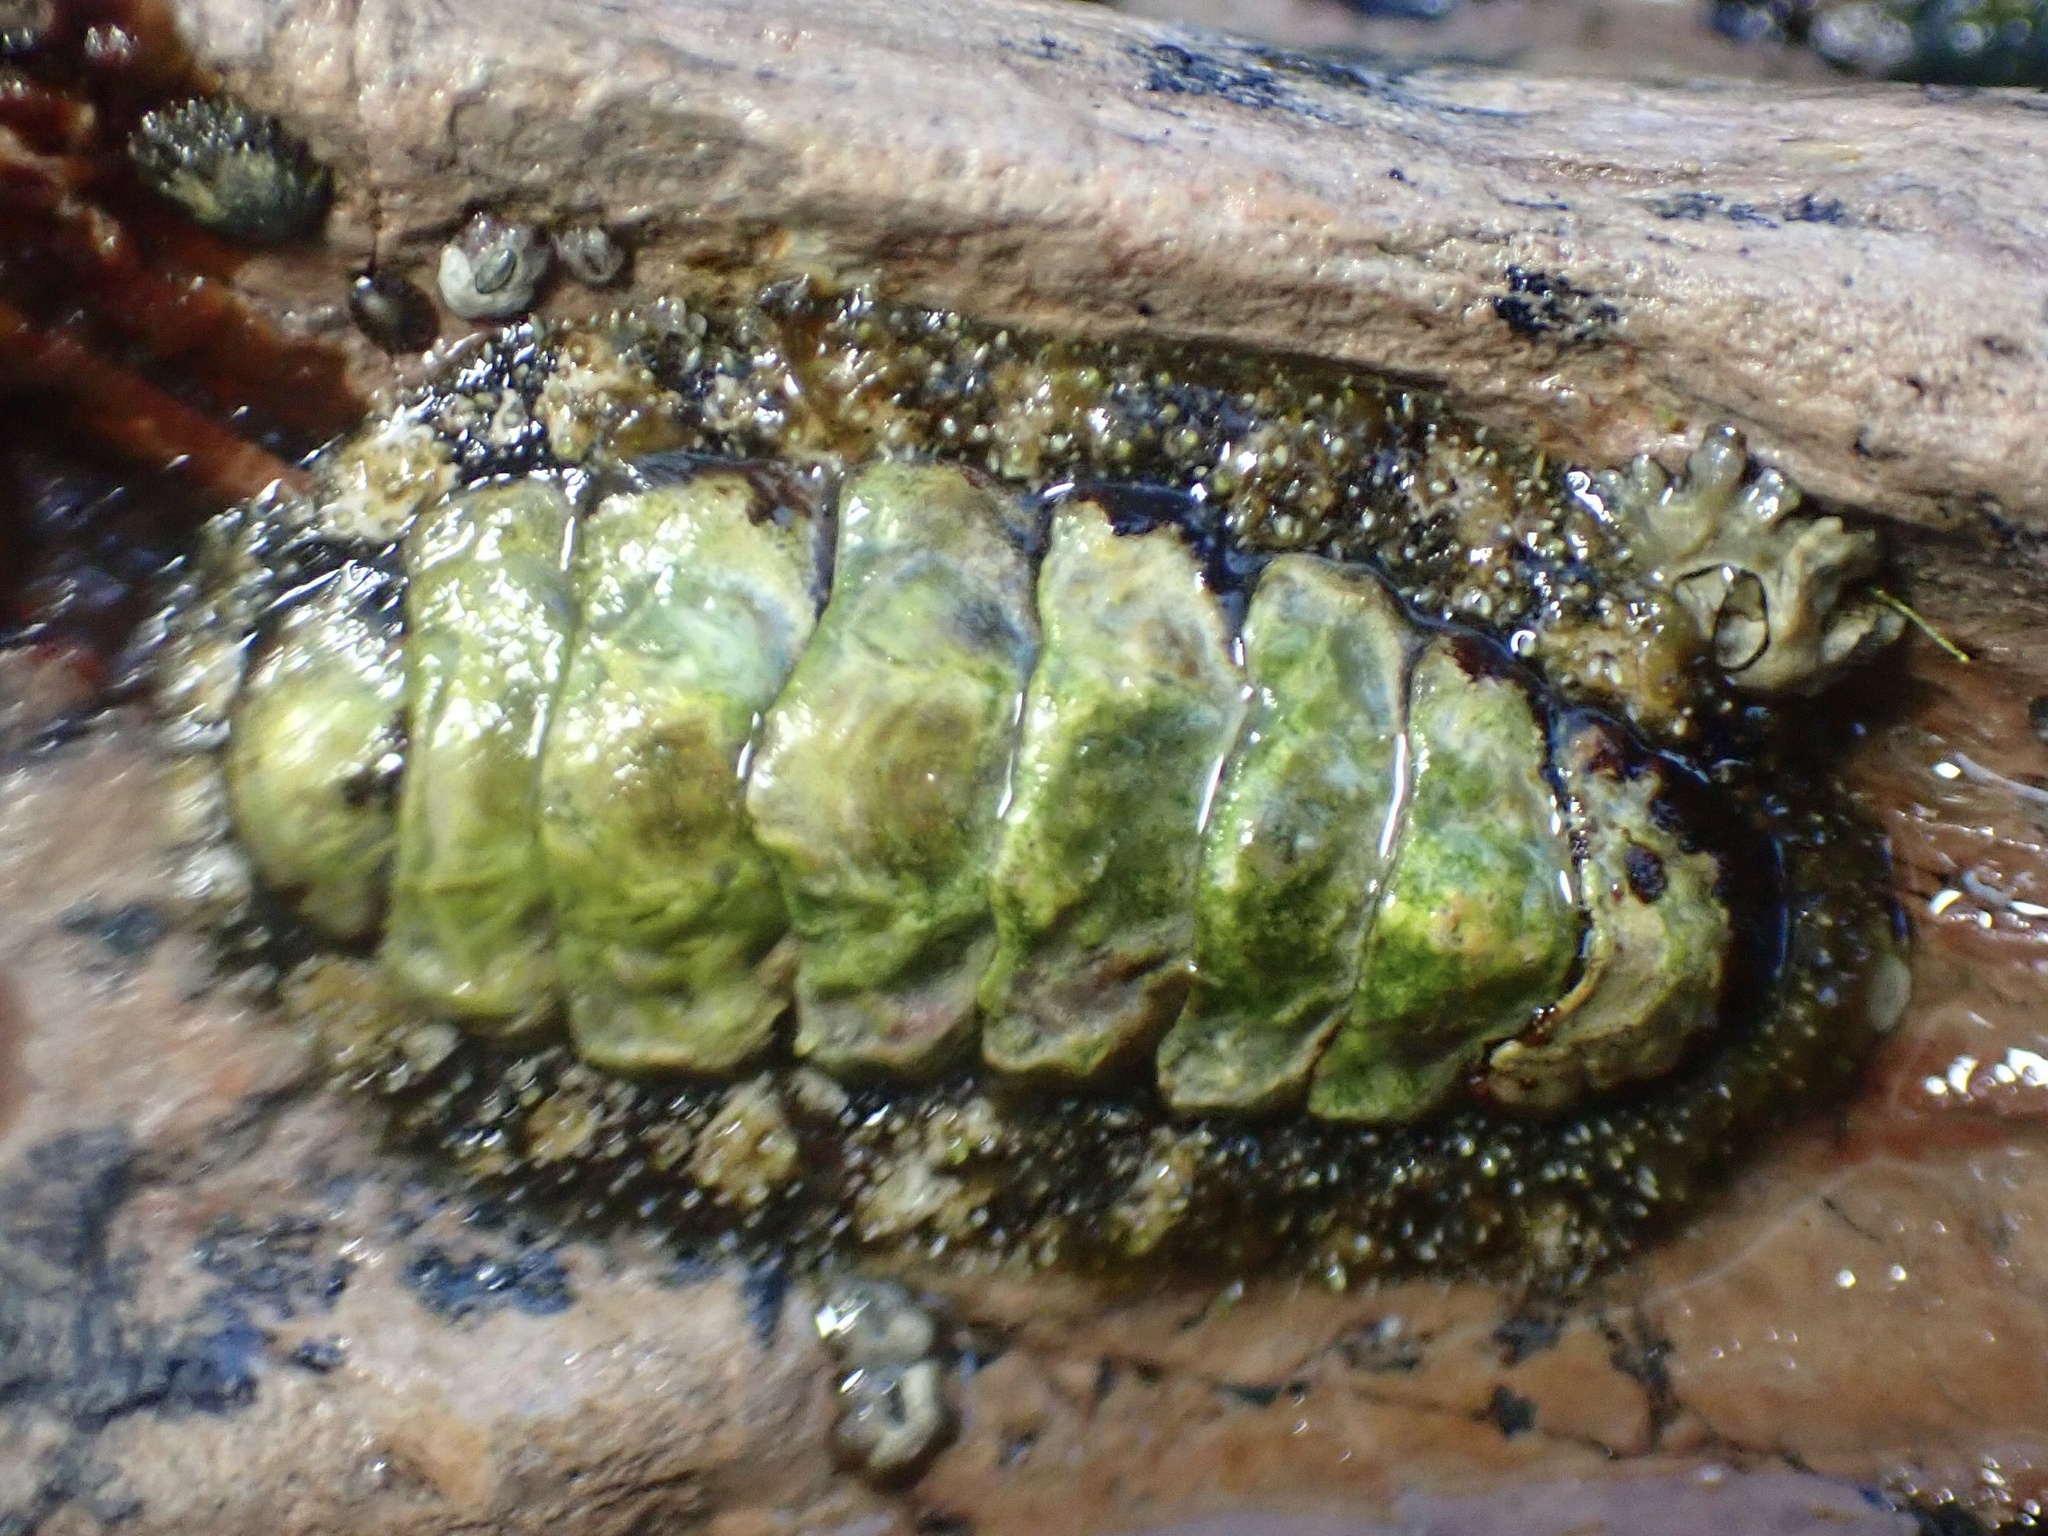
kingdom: Animalia
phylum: Mollusca
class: Polyplacophora
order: Chitonida
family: Tonicellidae
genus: Nuttallina
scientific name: Nuttallina californica
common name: California nuttall chiton
